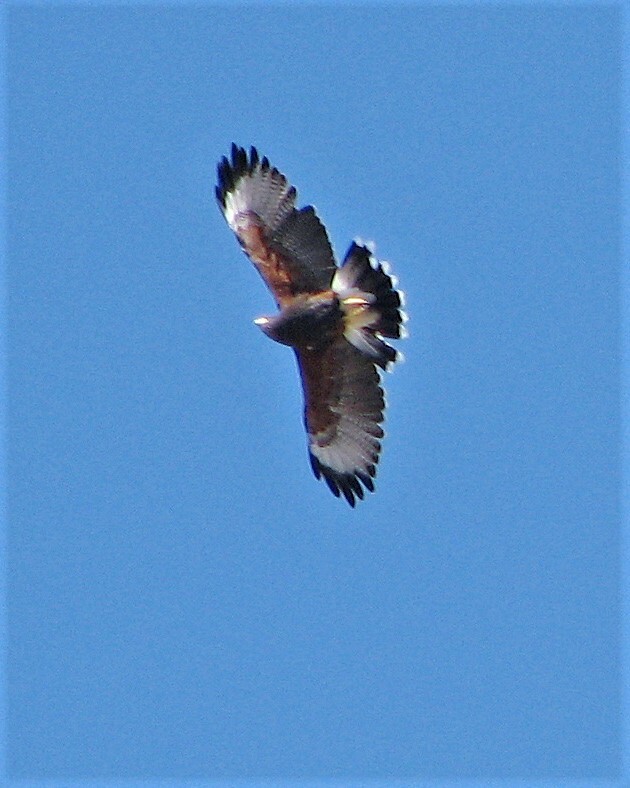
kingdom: Animalia
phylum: Chordata
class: Aves
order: Accipitriformes
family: Accipitridae
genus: Parabuteo
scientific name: Parabuteo unicinctus
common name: Harris's hawk
